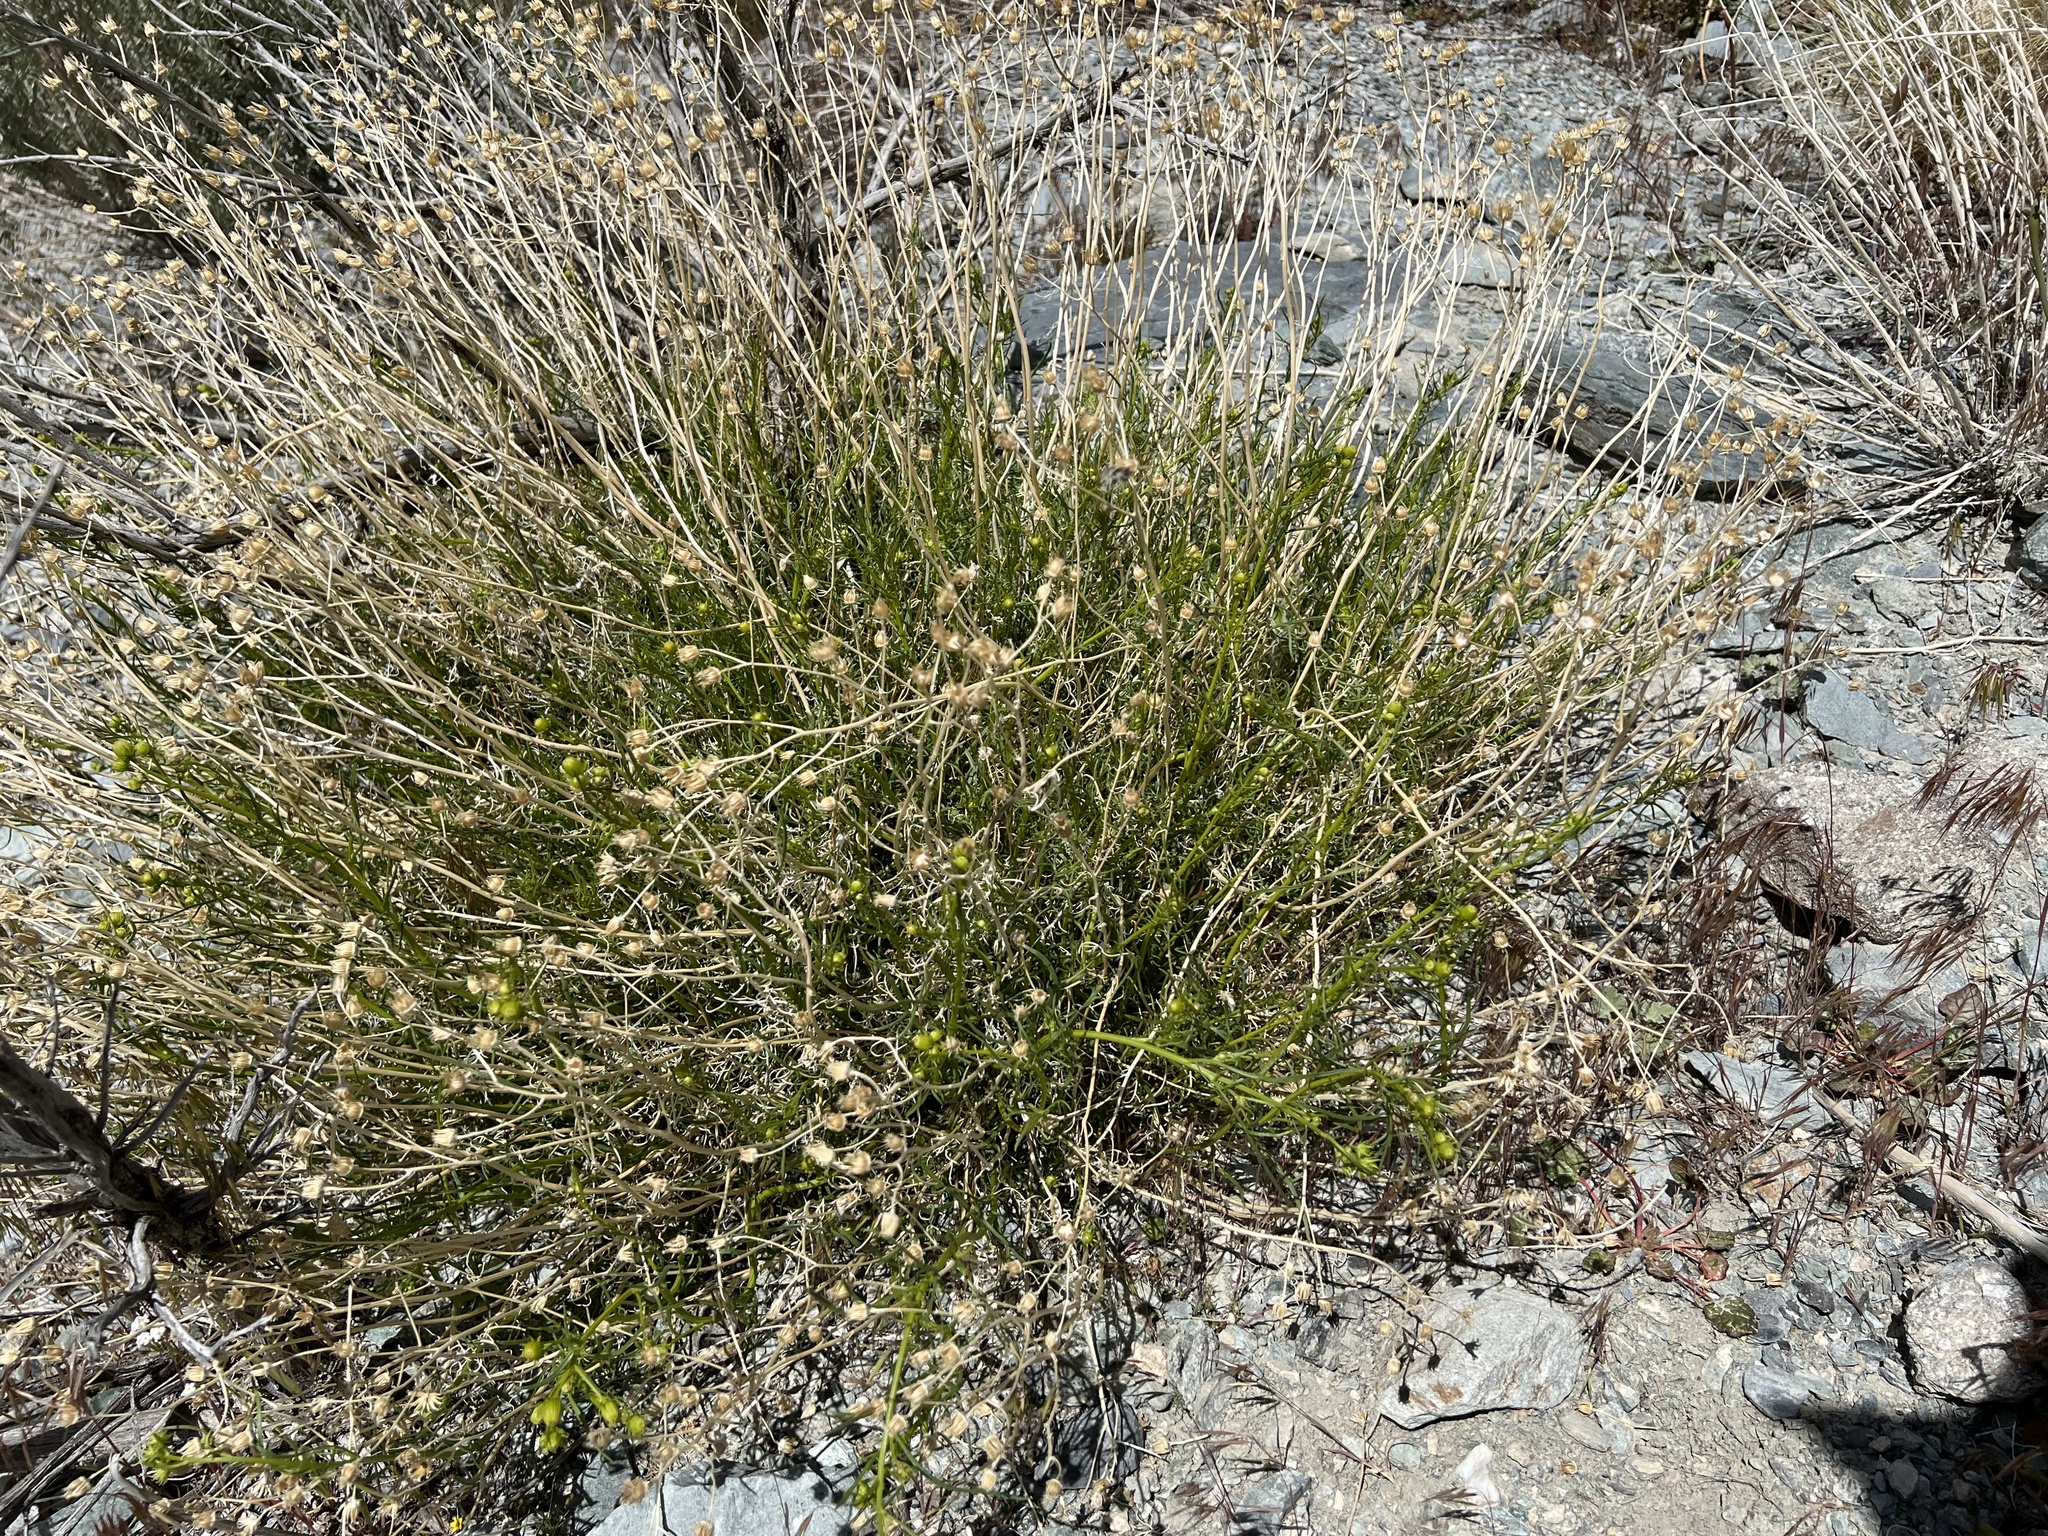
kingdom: Plantae
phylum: Tracheophyta
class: Magnoliopsida
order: Asterales
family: Asteraceae
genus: Senecio
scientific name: Senecio flaccidus
